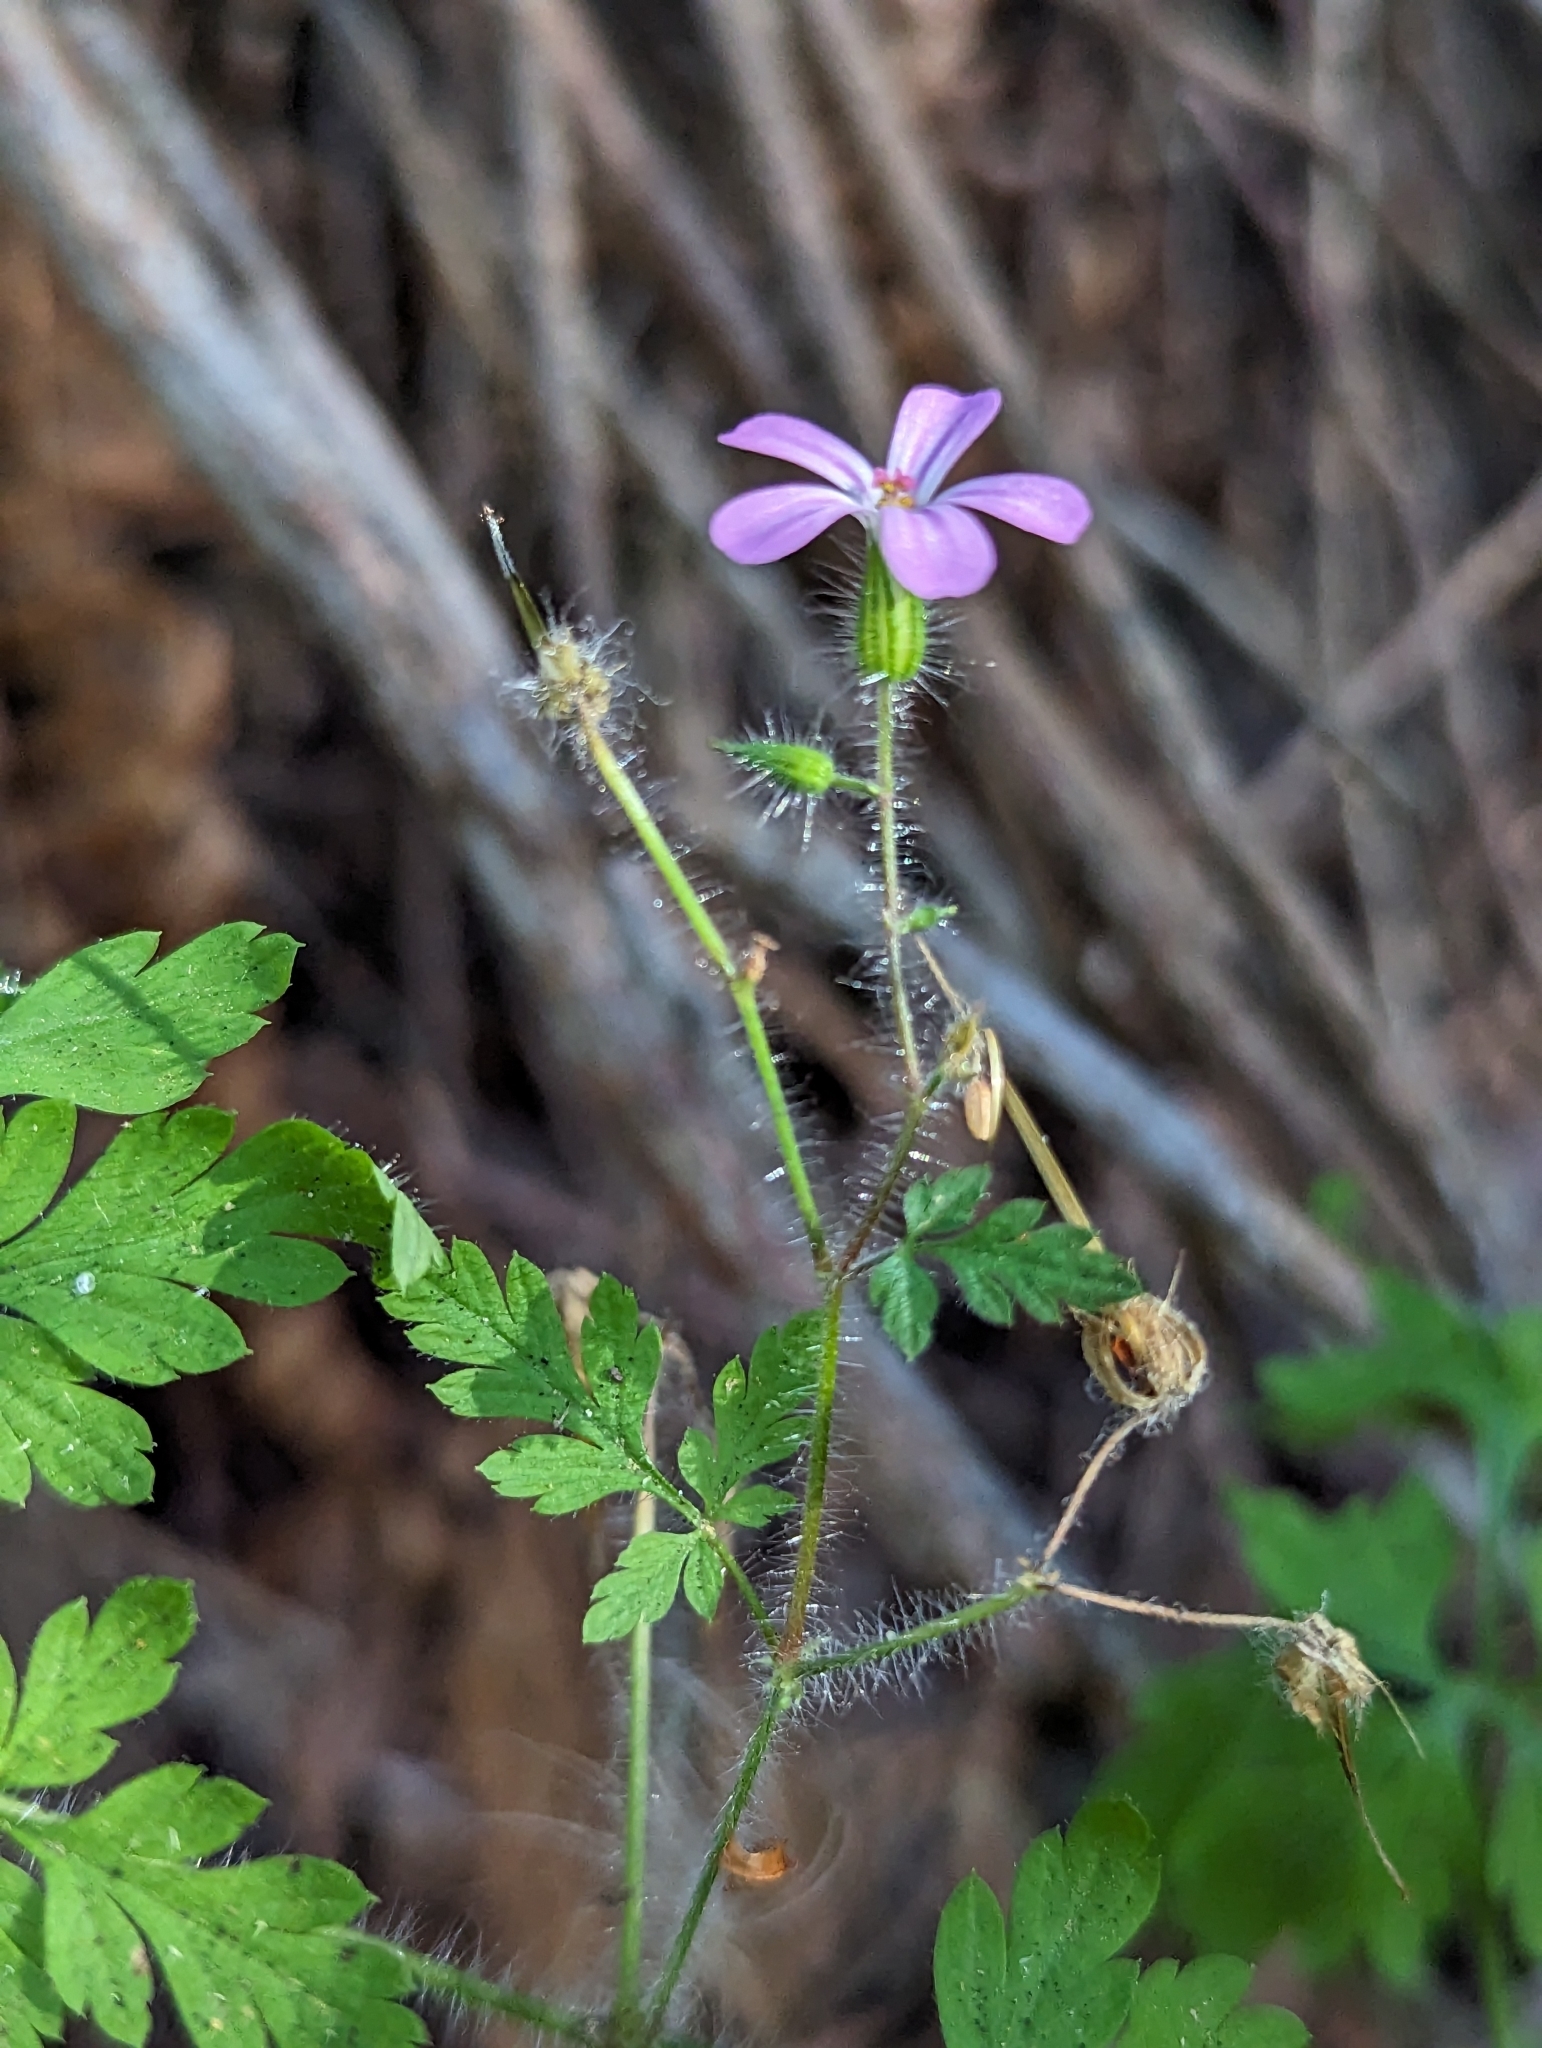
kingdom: Plantae
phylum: Tracheophyta
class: Magnoliopsida
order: Geraniales
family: Geraniaceae
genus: Geranium
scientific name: Geranium robertianum
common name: Herb-robert
